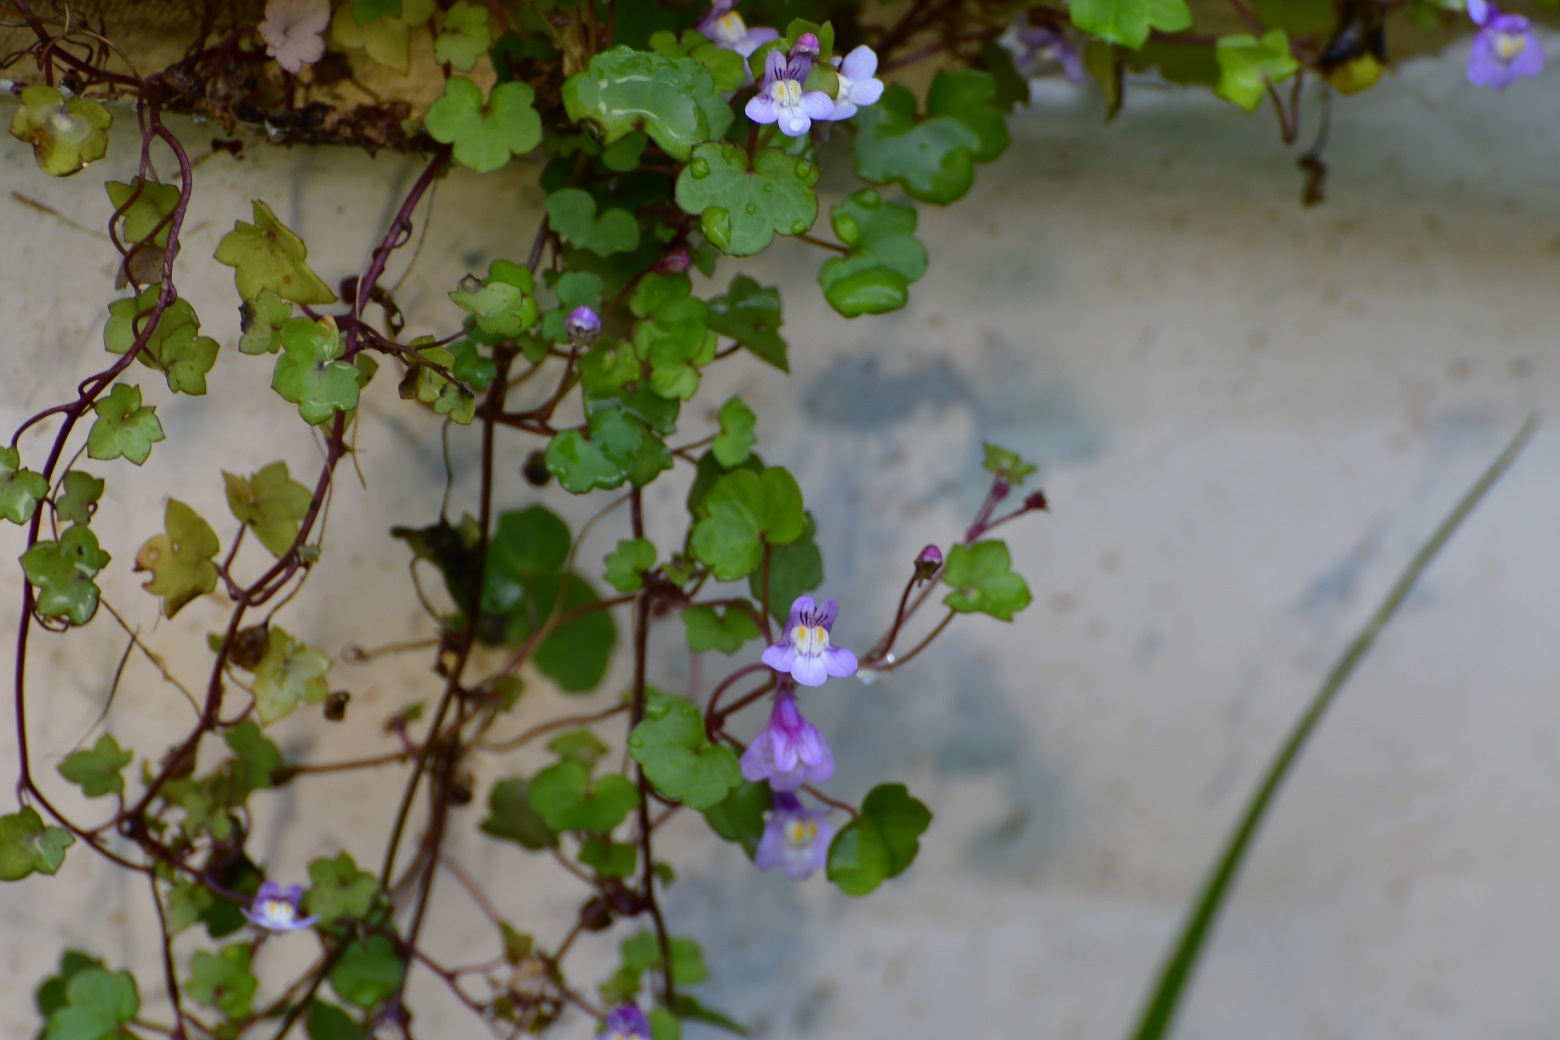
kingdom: Plantae
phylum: Tracheophyta
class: Magnoliopsida
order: Lamiales
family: Plantaginaceae
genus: Cymbalaria
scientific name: Cymbalaria muralis
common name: Ivy-leaved toadflax
